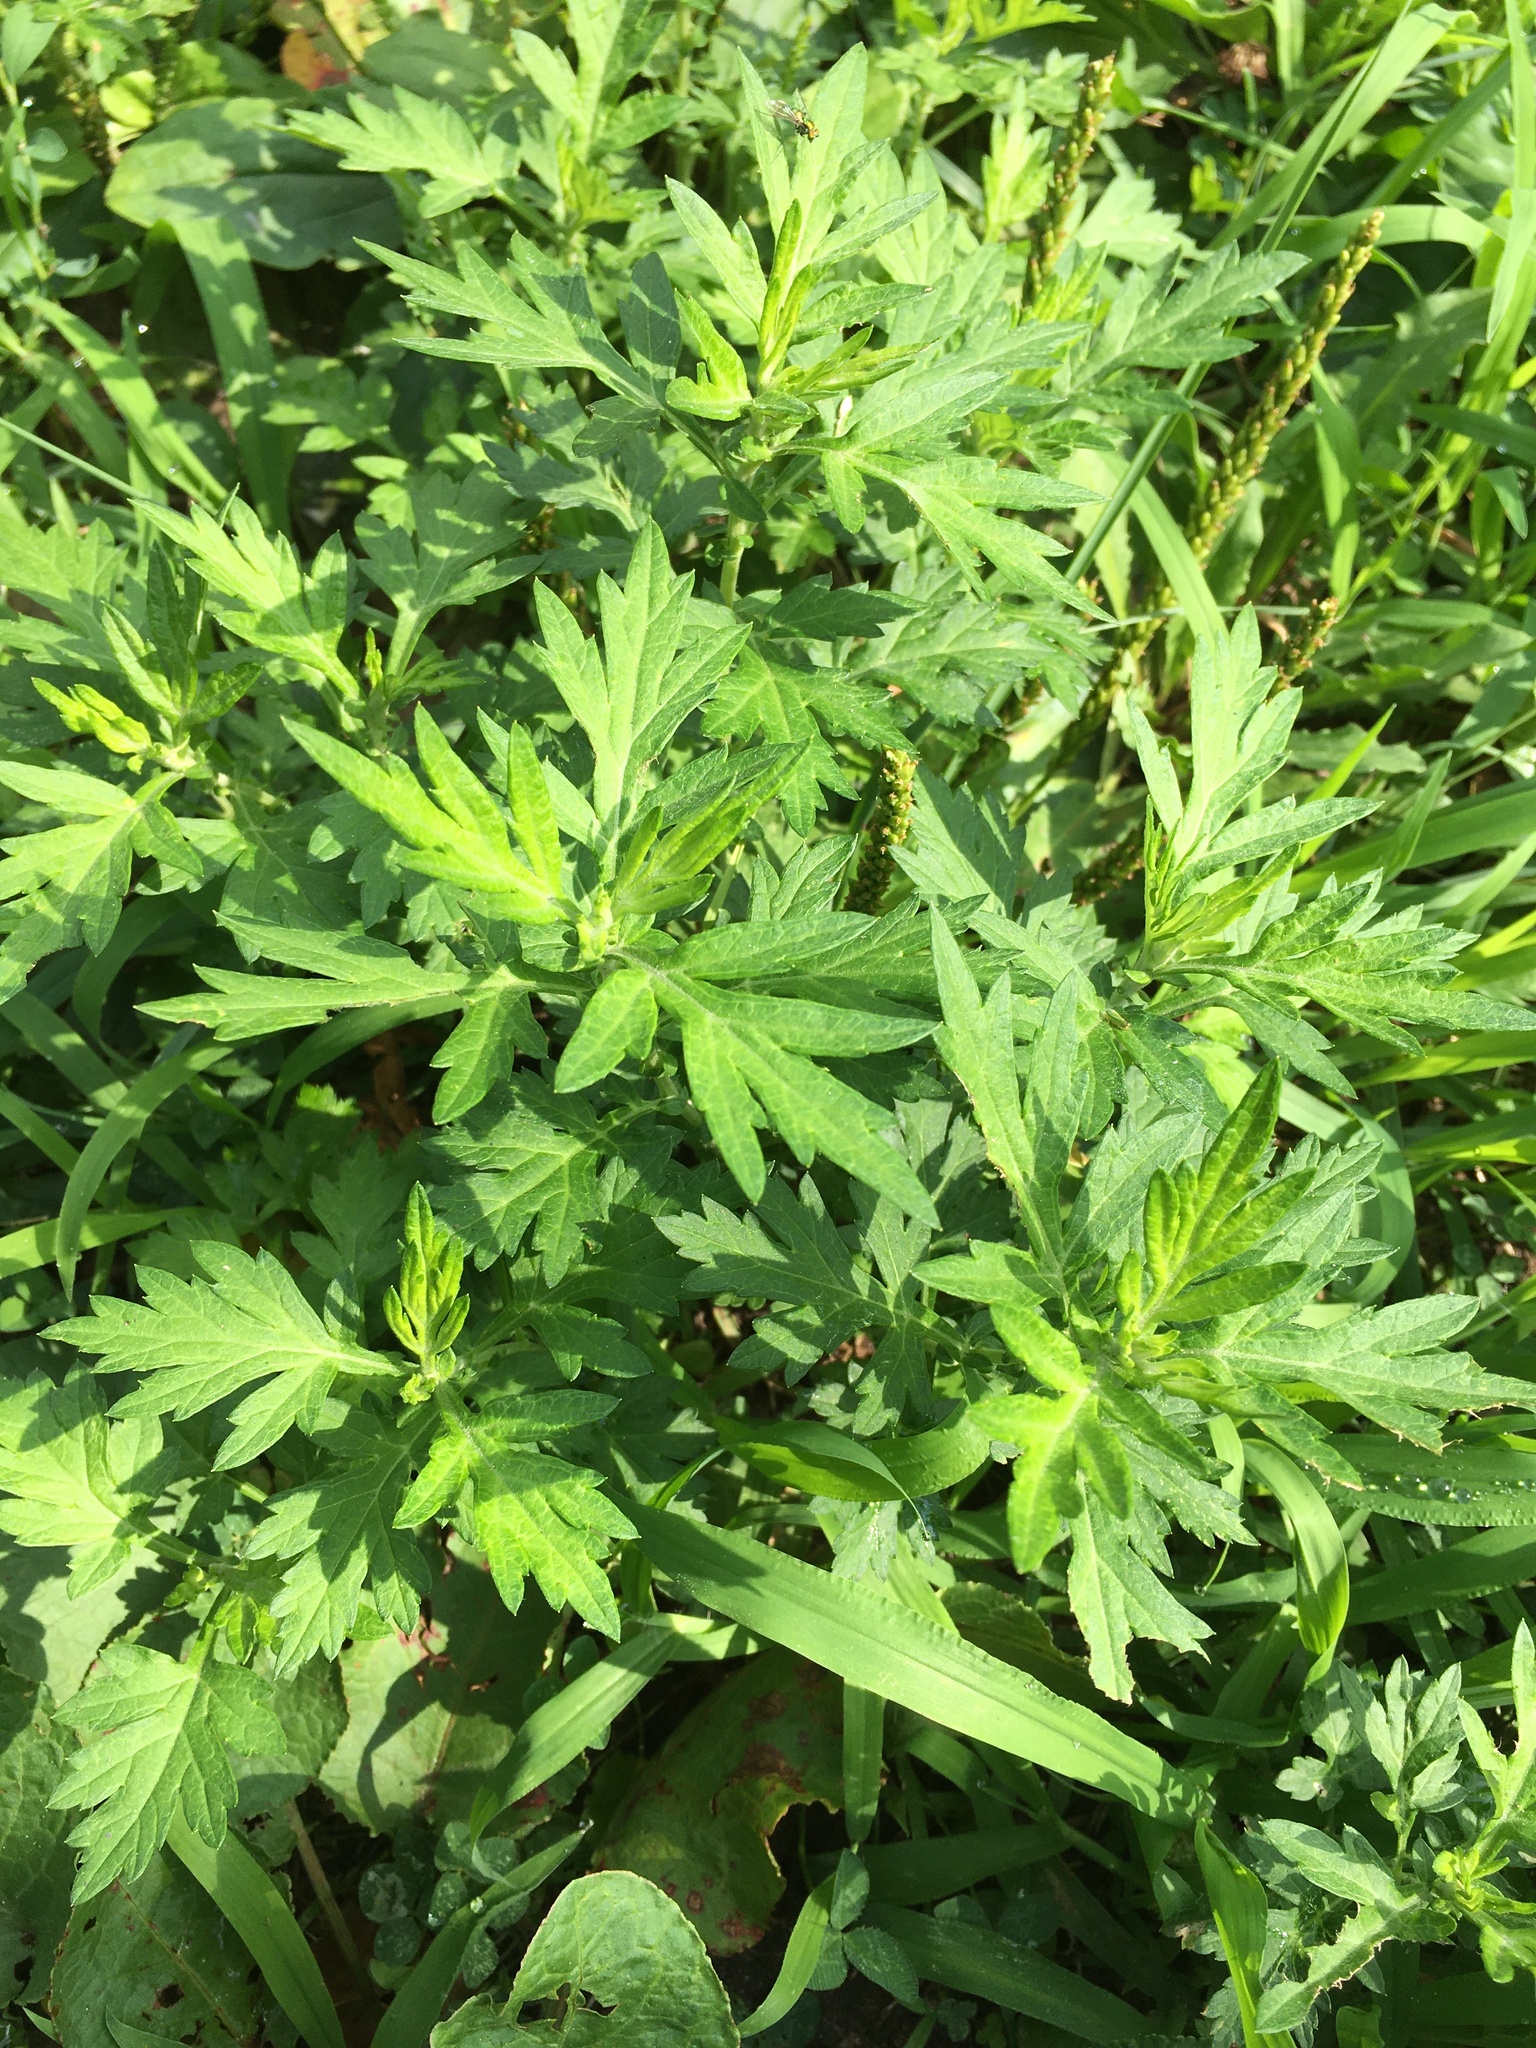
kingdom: Plantae
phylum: Tracheophyta
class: Magnoliopsida
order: Asterales
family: Asteraceae
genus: Artemisia
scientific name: Artemisia vulgaris
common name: Mugwort
